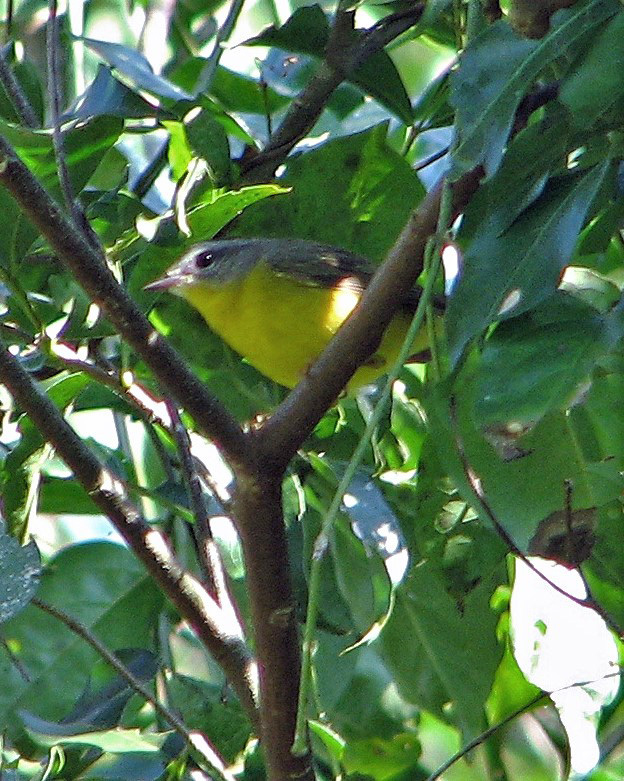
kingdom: Animalia
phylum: Chordata
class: Aves
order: Passeriformes
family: Parulidae
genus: Setophaga
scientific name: Setophaga pitiayumi
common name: Tropical parula
